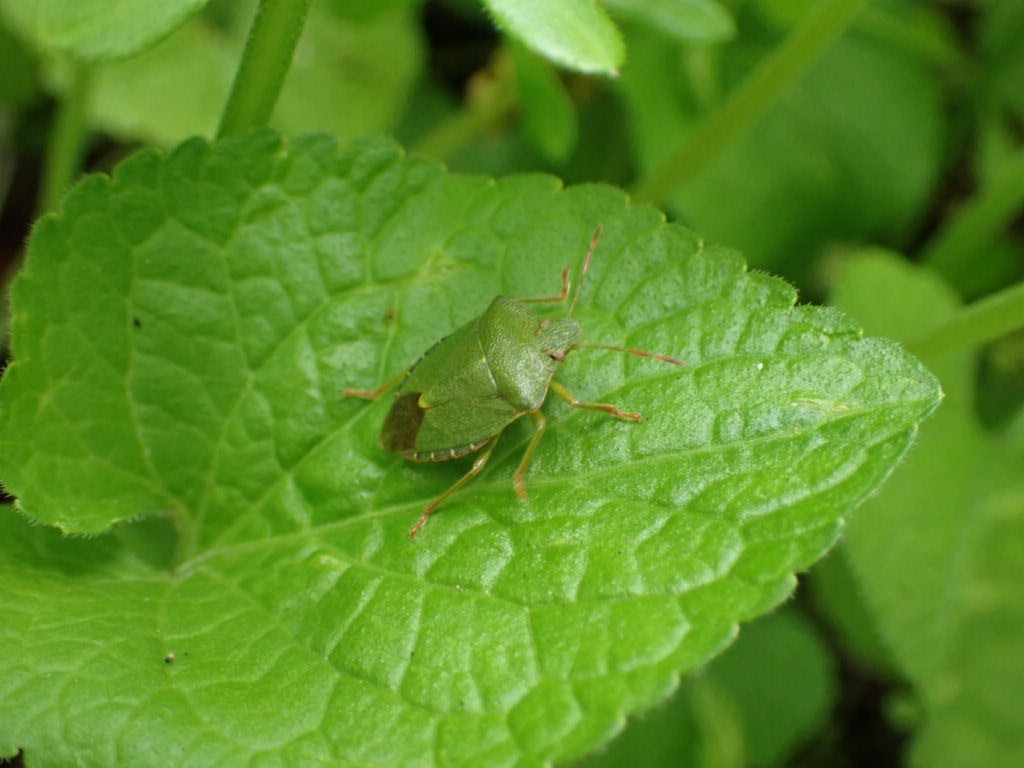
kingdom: Animalia
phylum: Arthropoda
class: Insecta
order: Hemiptera
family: Pentatomidae
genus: Palomena
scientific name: Palomena prasina
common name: Green shieldbug
